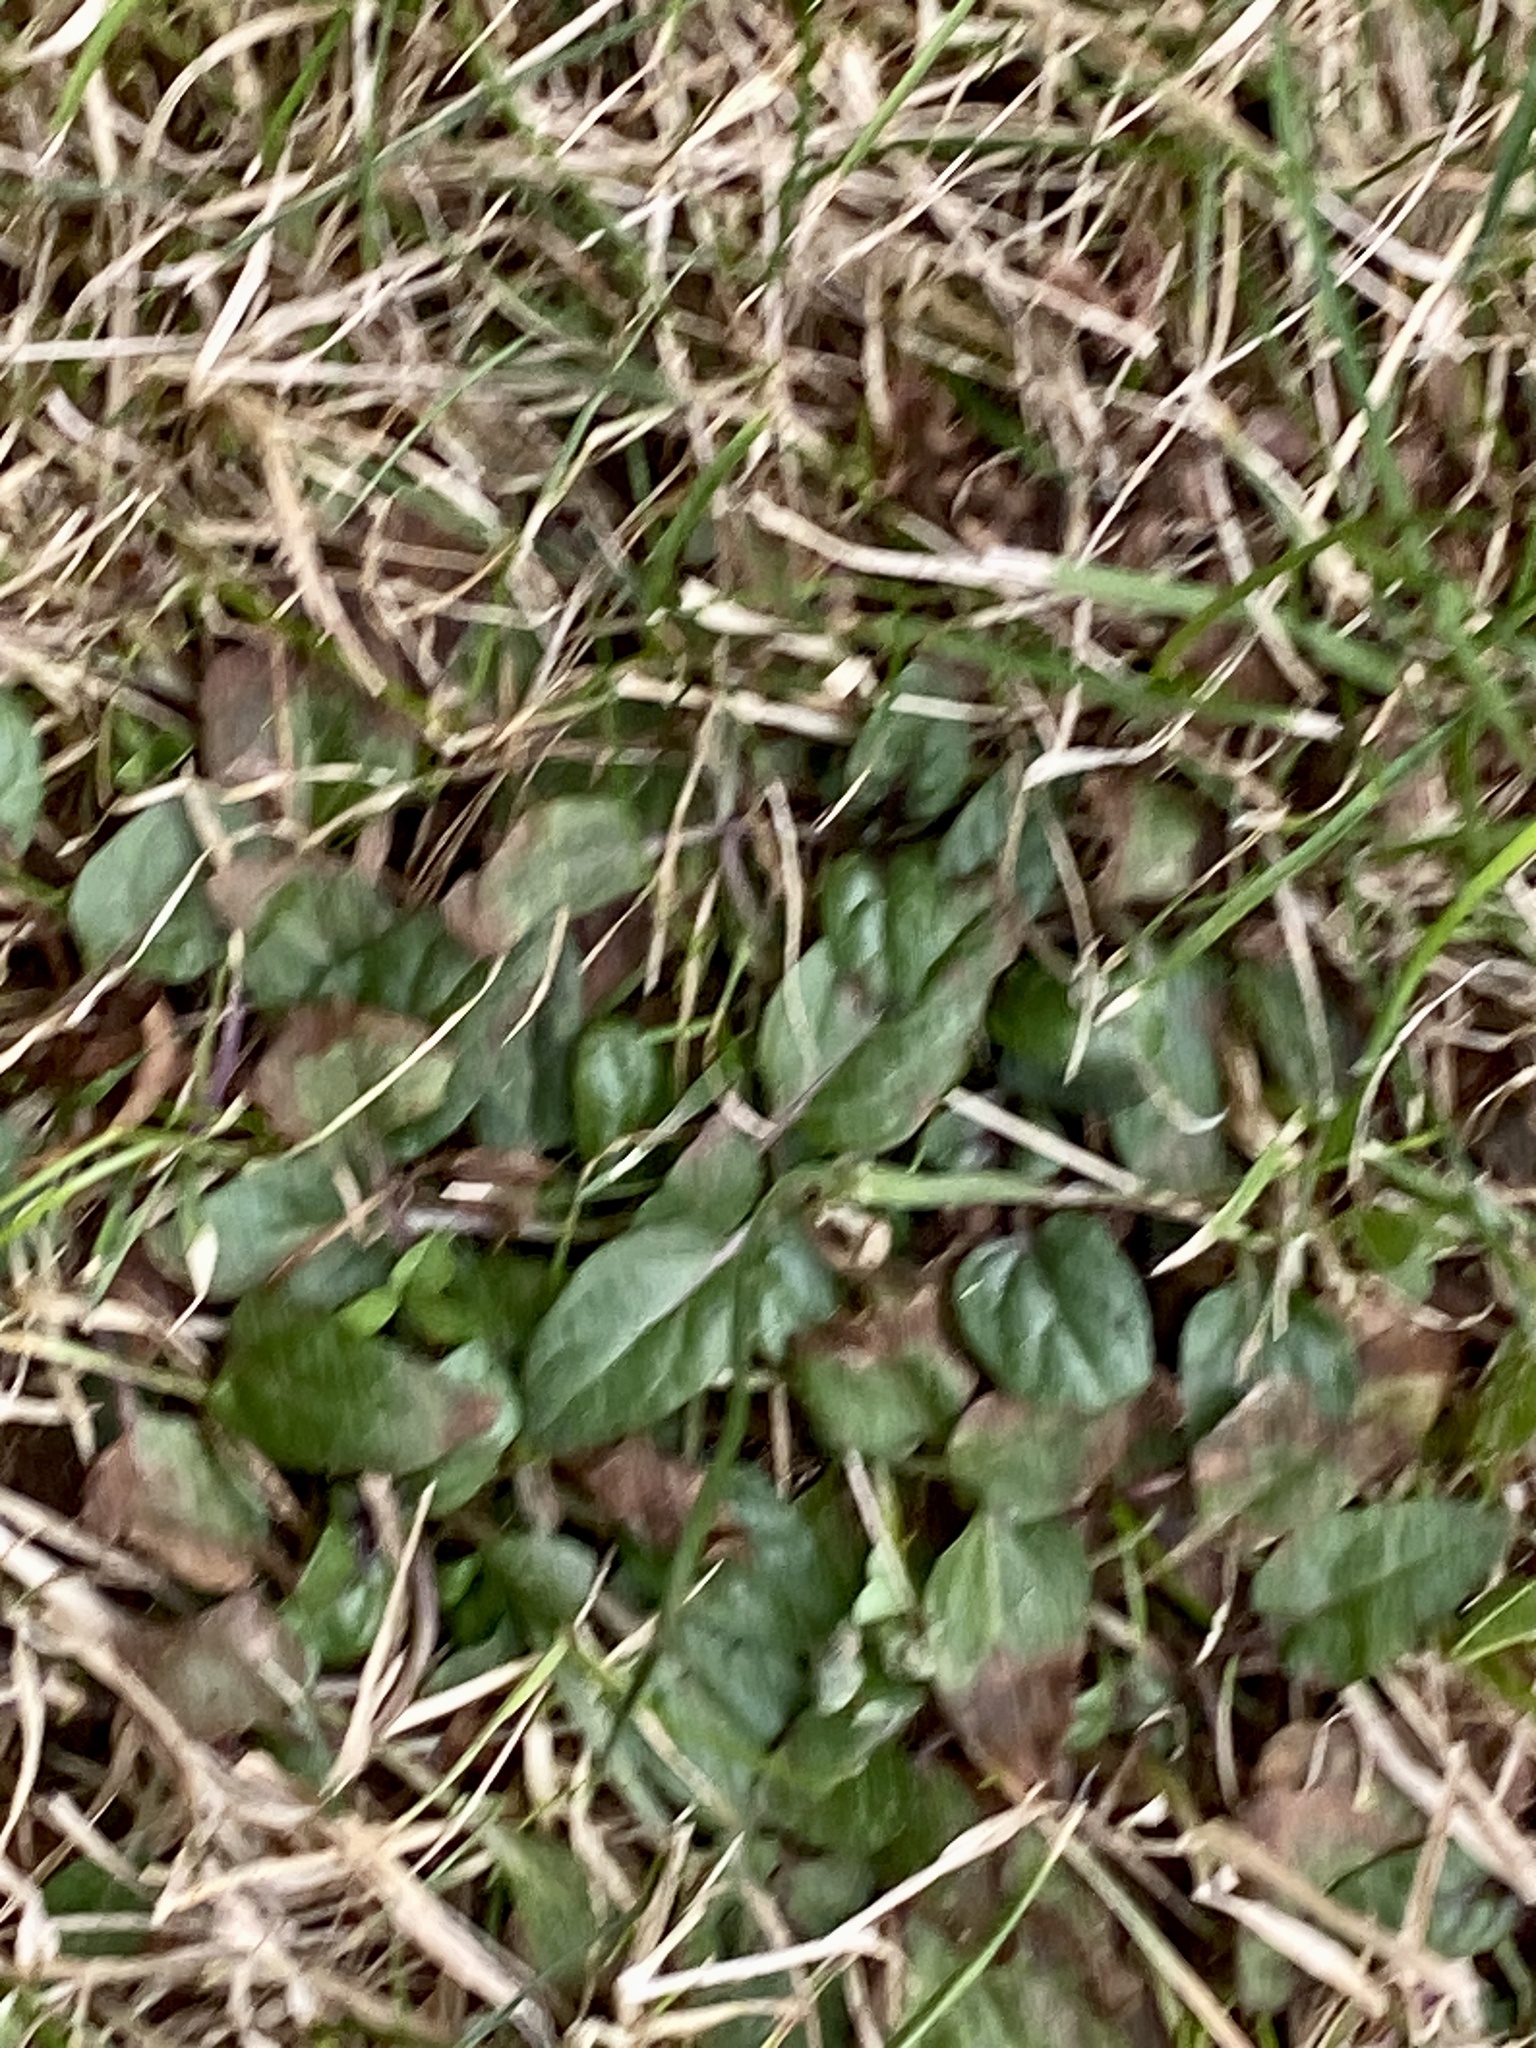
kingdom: Plantae
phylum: Tracheophyta
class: Magnoliopsida
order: Lamiales
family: Lamiaceae
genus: Prunella
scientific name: Prunella vulgaris
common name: Heal-all
